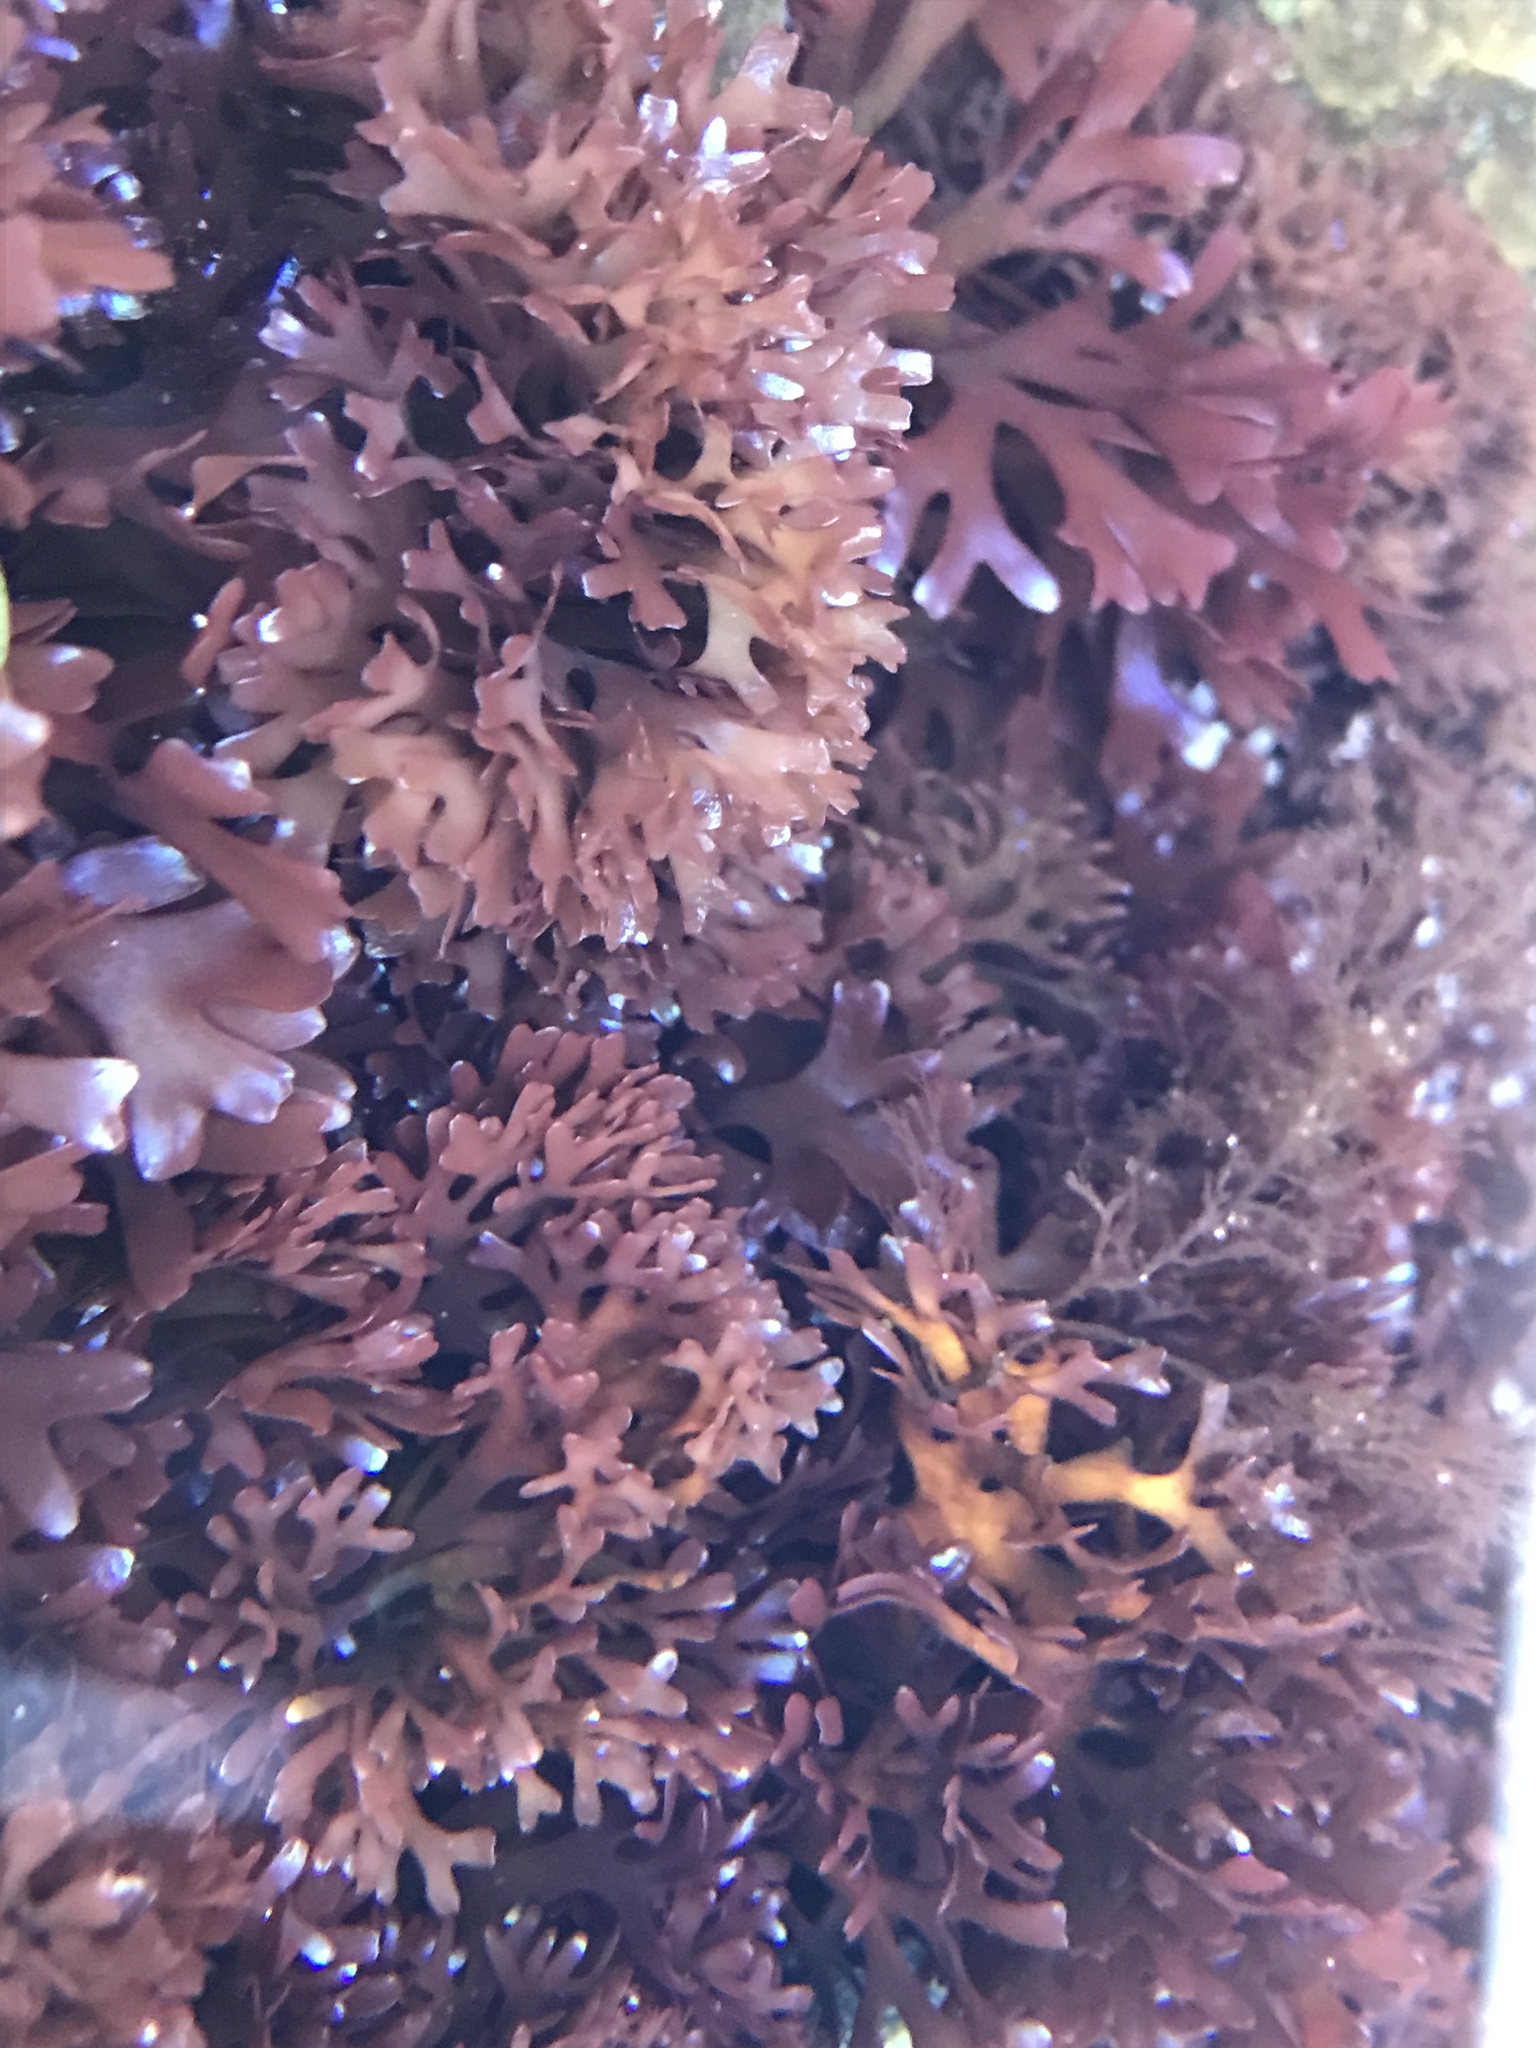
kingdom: Plantae
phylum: Rhodophyta
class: Florideophyceae
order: Gigartinales
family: Gigartinaceae
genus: Chondrus
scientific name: Chondrus crispus
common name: Carrageen
